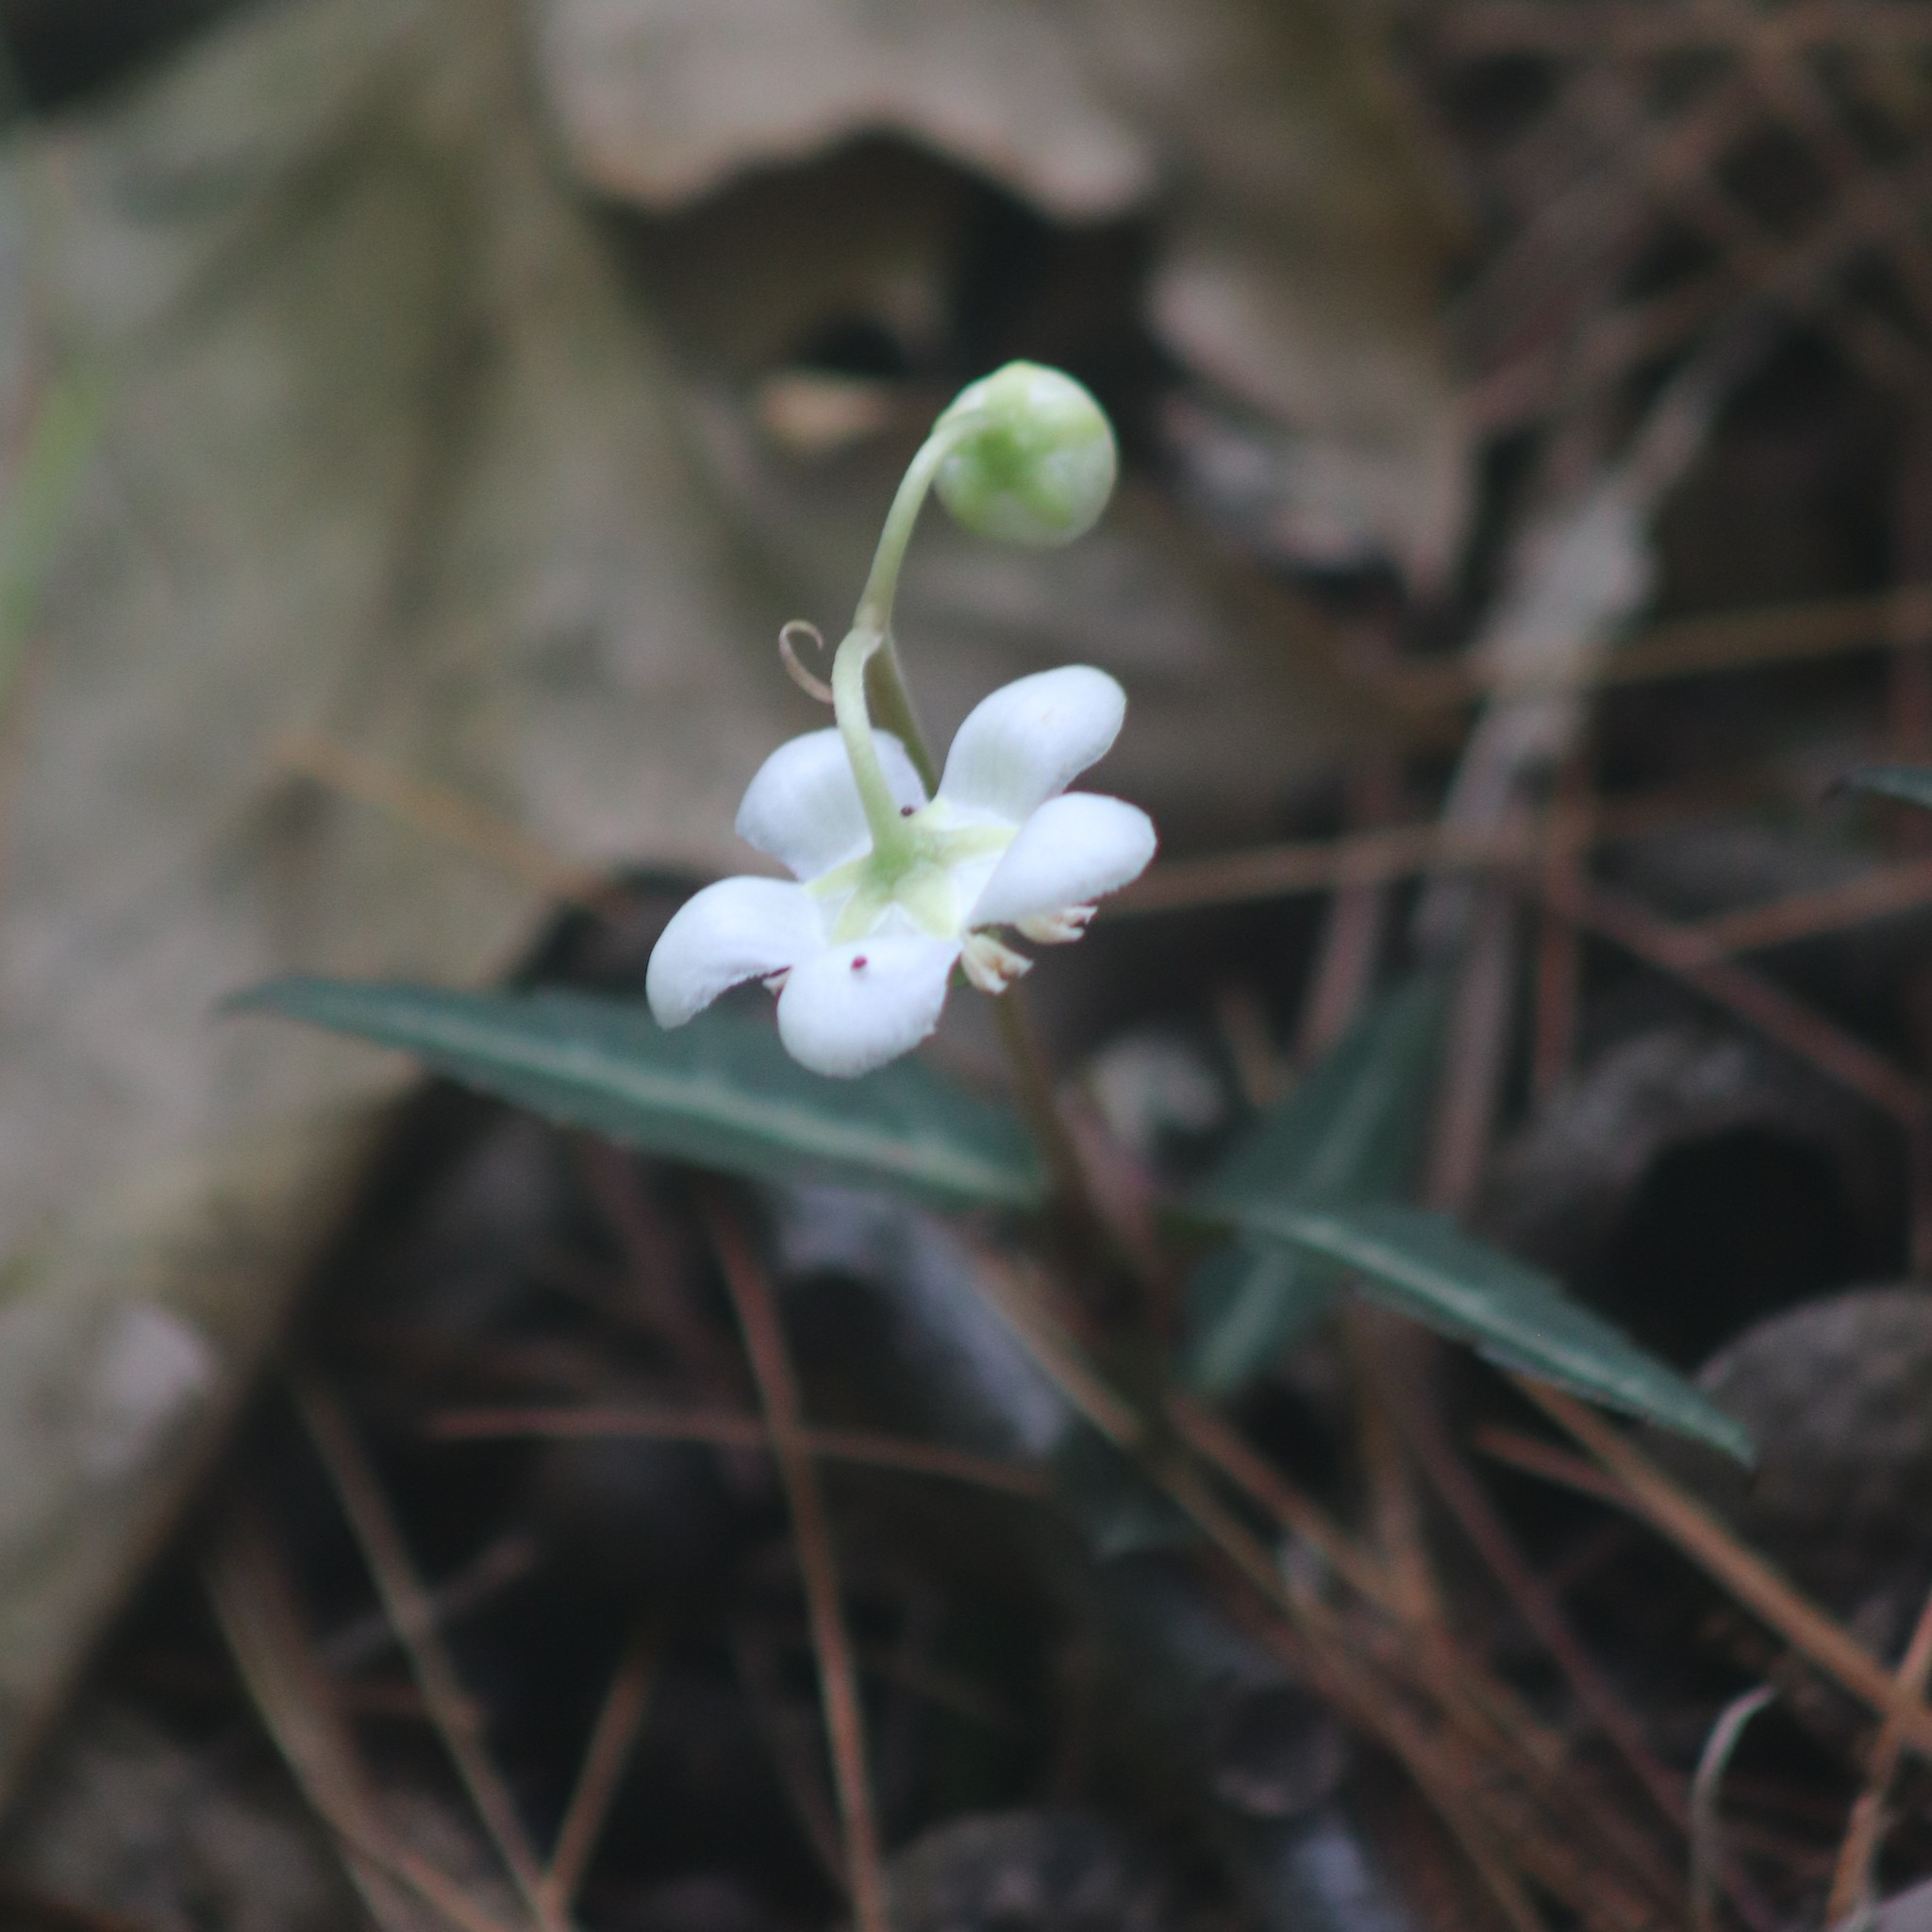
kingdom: Plantae
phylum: Tracheophyta
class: Magnoliopsida
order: Ericales
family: Ericaceae
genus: Chimaphila
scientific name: Chimaphila maculata
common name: Spotted pipsissewa
